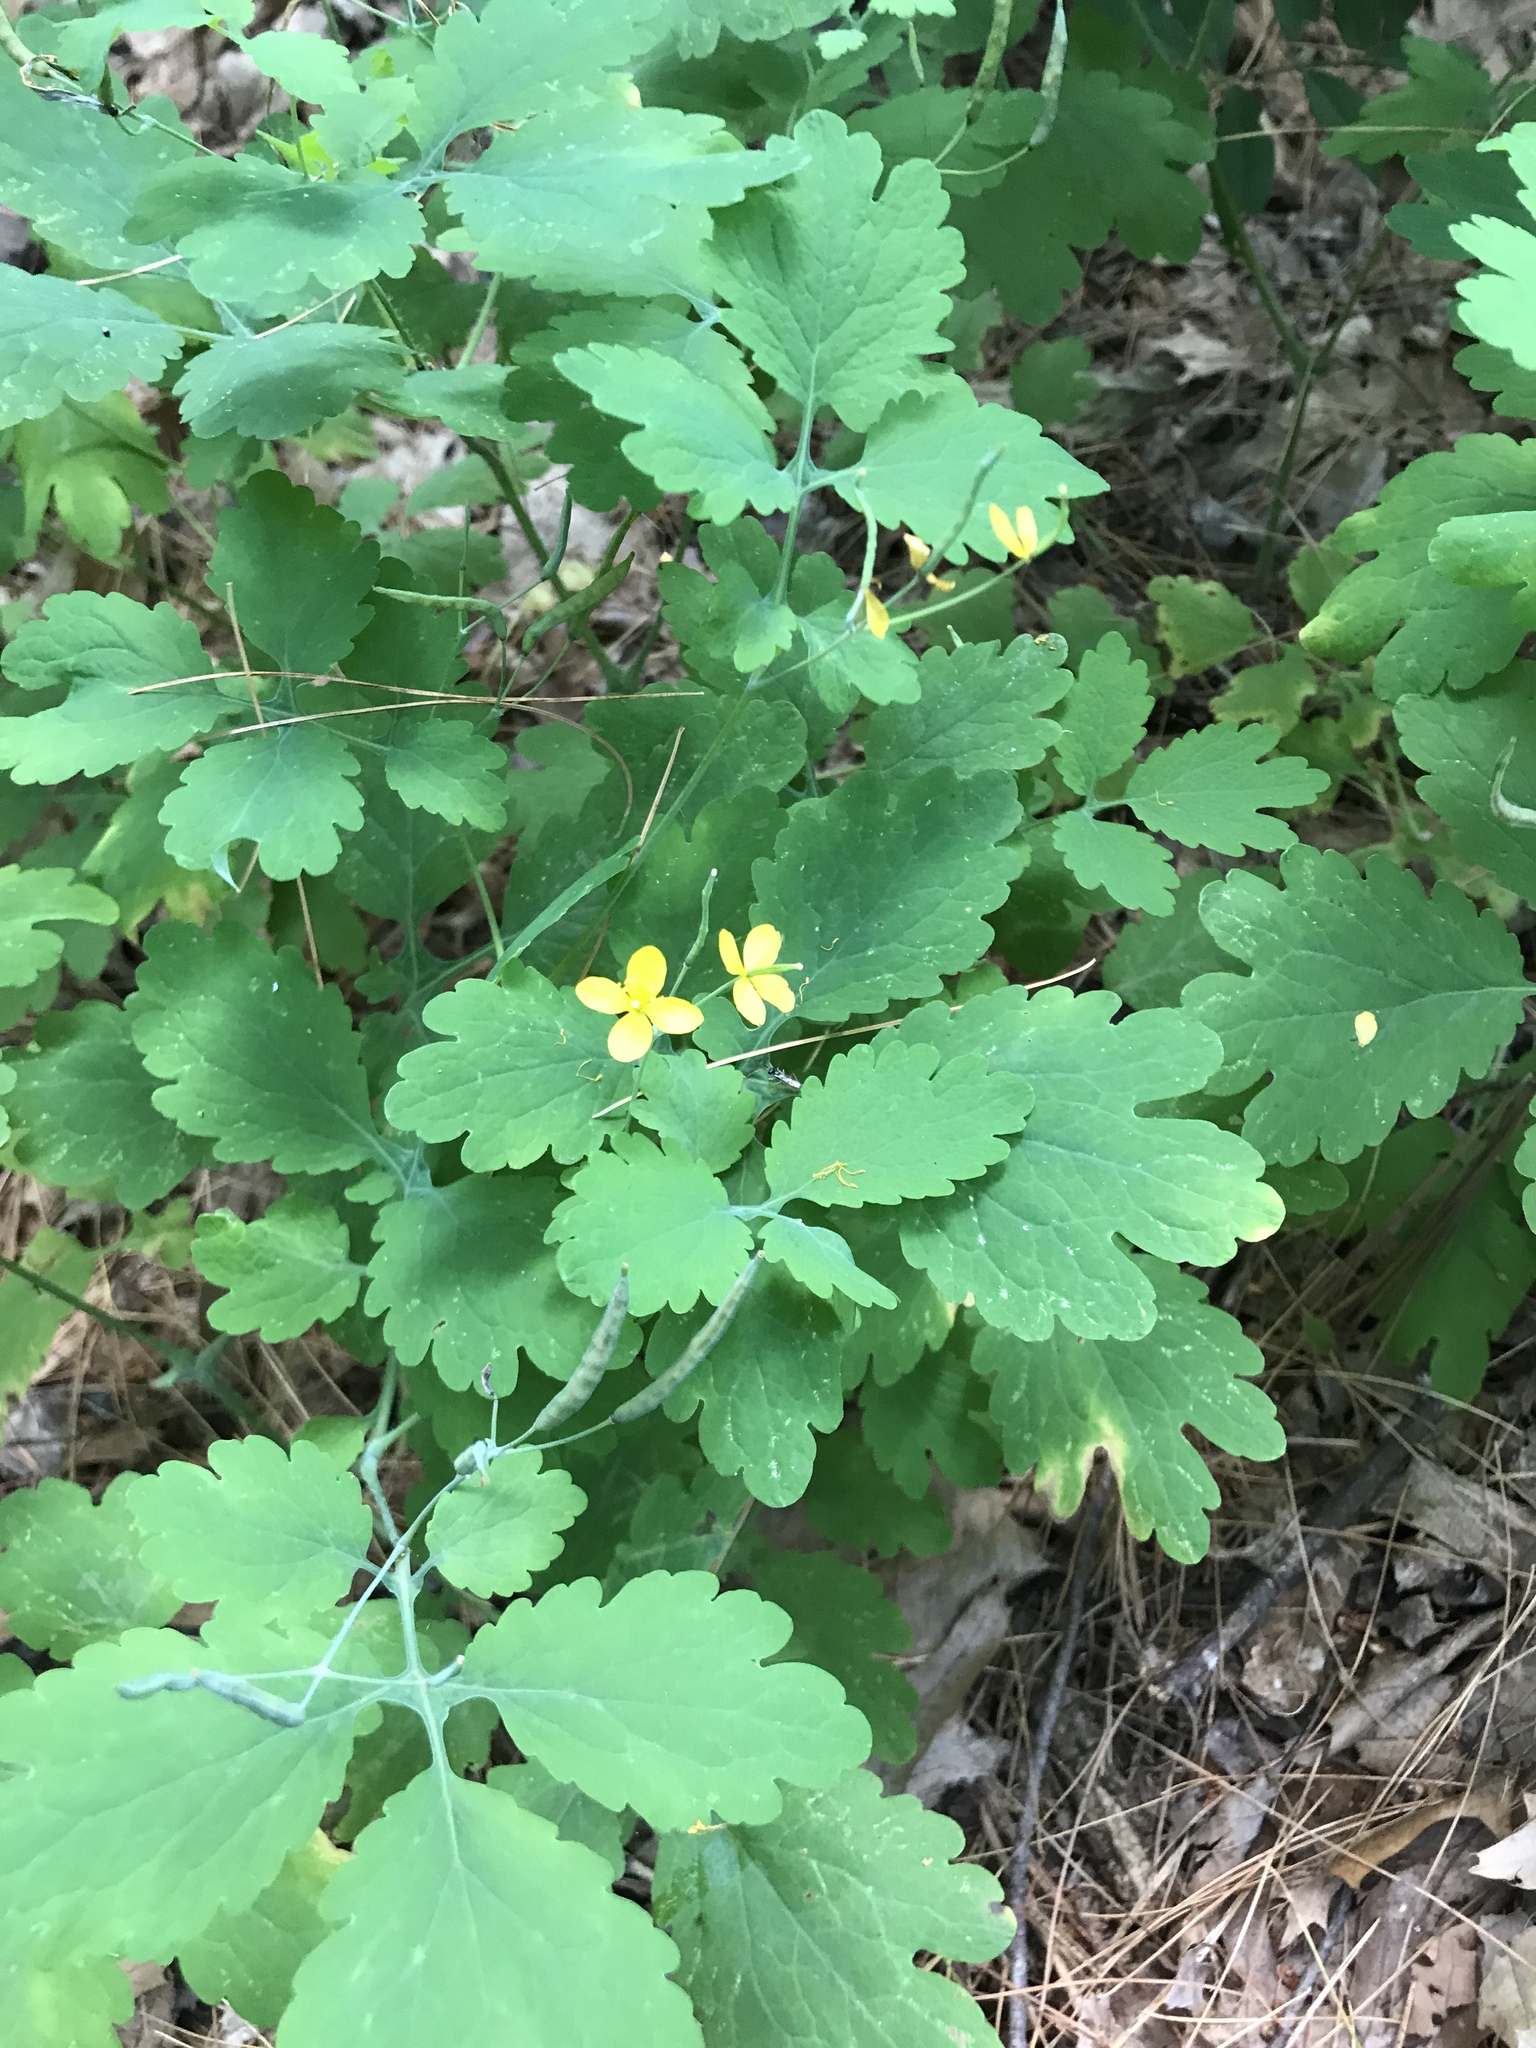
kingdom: Plantae
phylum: Tracheophyta
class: Magnoliopsida
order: Ranunculales
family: Papaveraceae
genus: Chelidonium
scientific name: Chelidonium majus
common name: Greater celandine
